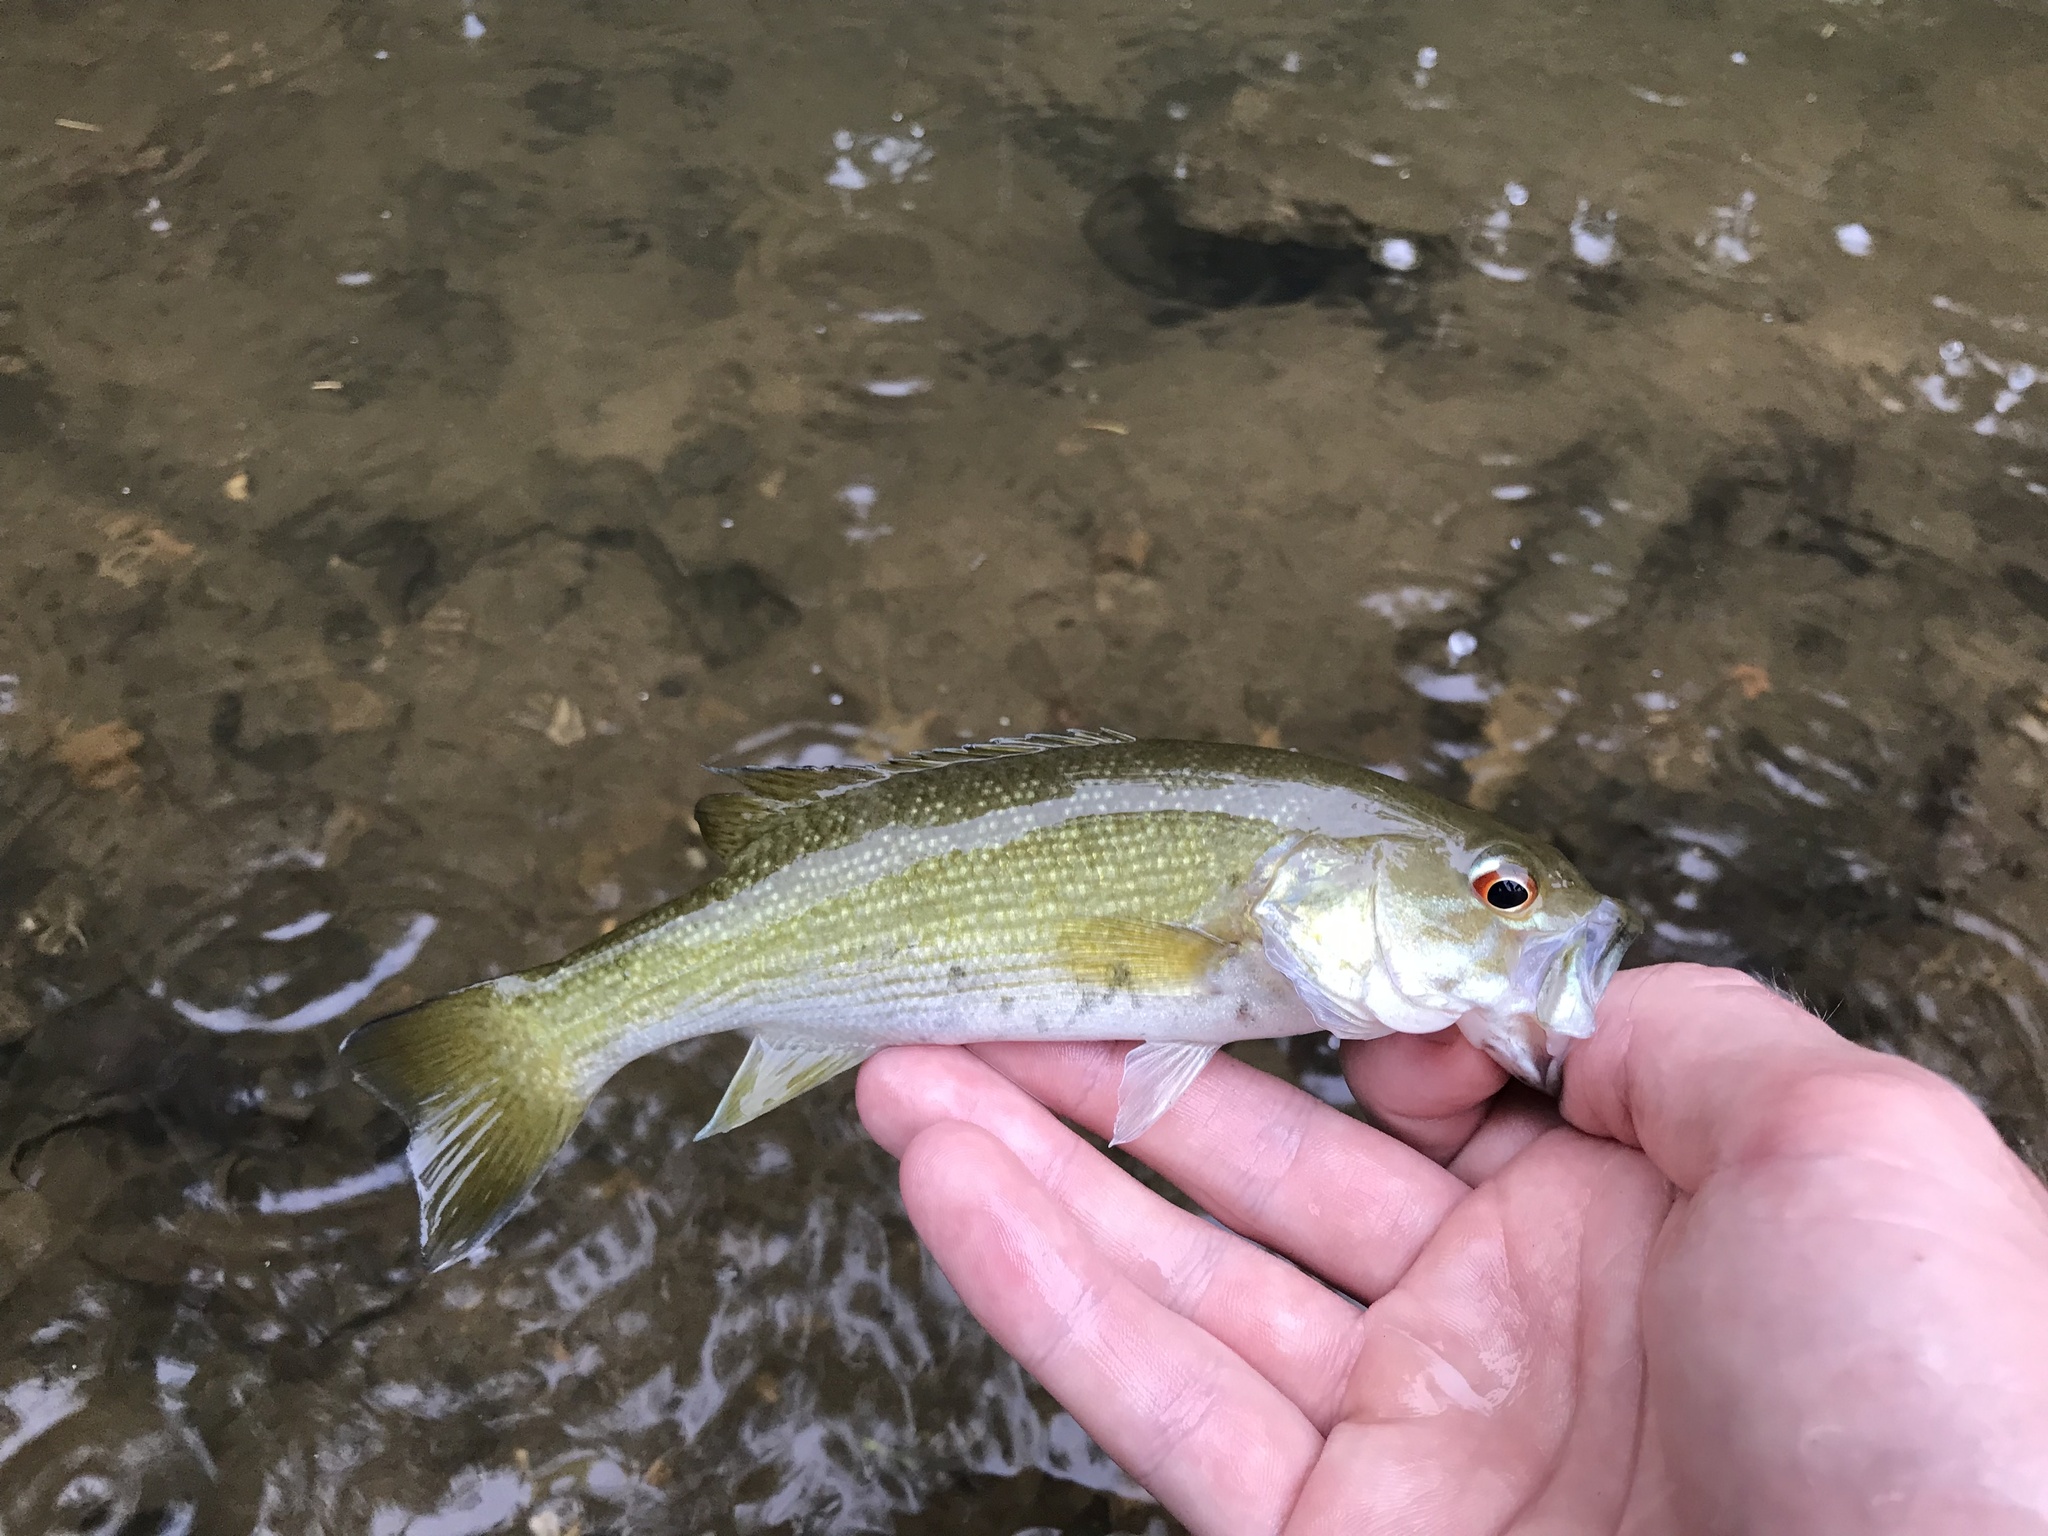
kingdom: Animalia
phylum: Chordata
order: Perciformes
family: Centrarchidae
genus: Micropterus
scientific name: Micropterus cahabae
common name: Cahaba bass
